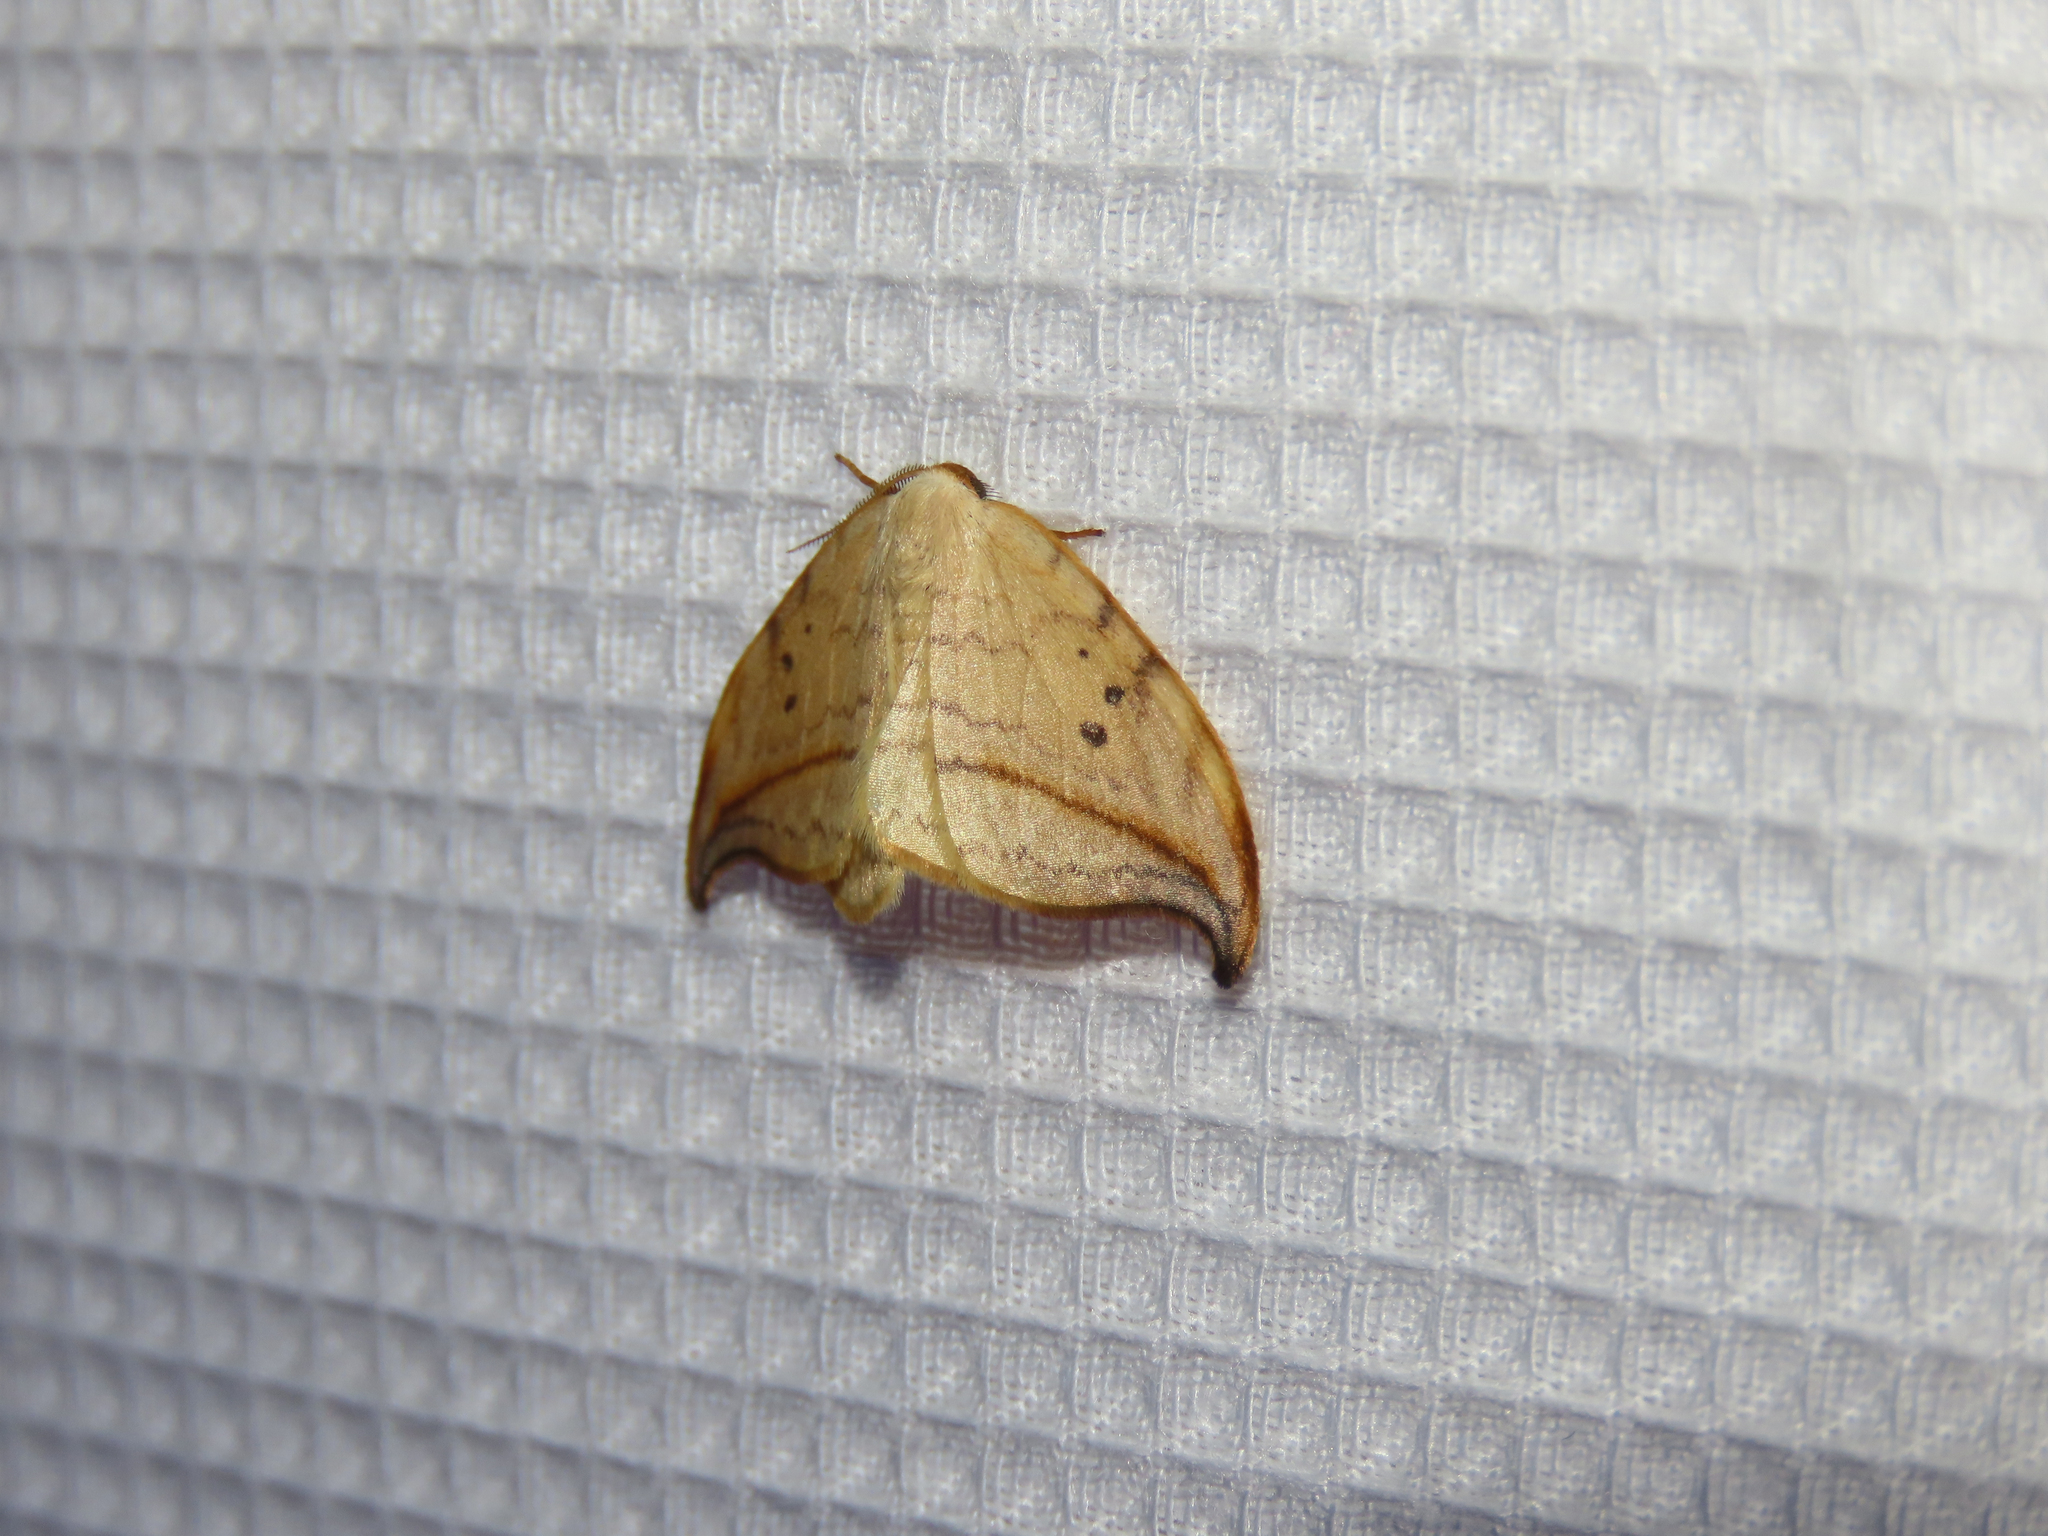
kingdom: Animalia
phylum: Arthropoda
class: Insecta
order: Lepidoptera
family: Drepanidae
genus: Drepana
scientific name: Drepana arcuata
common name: Arched hooktip moth
